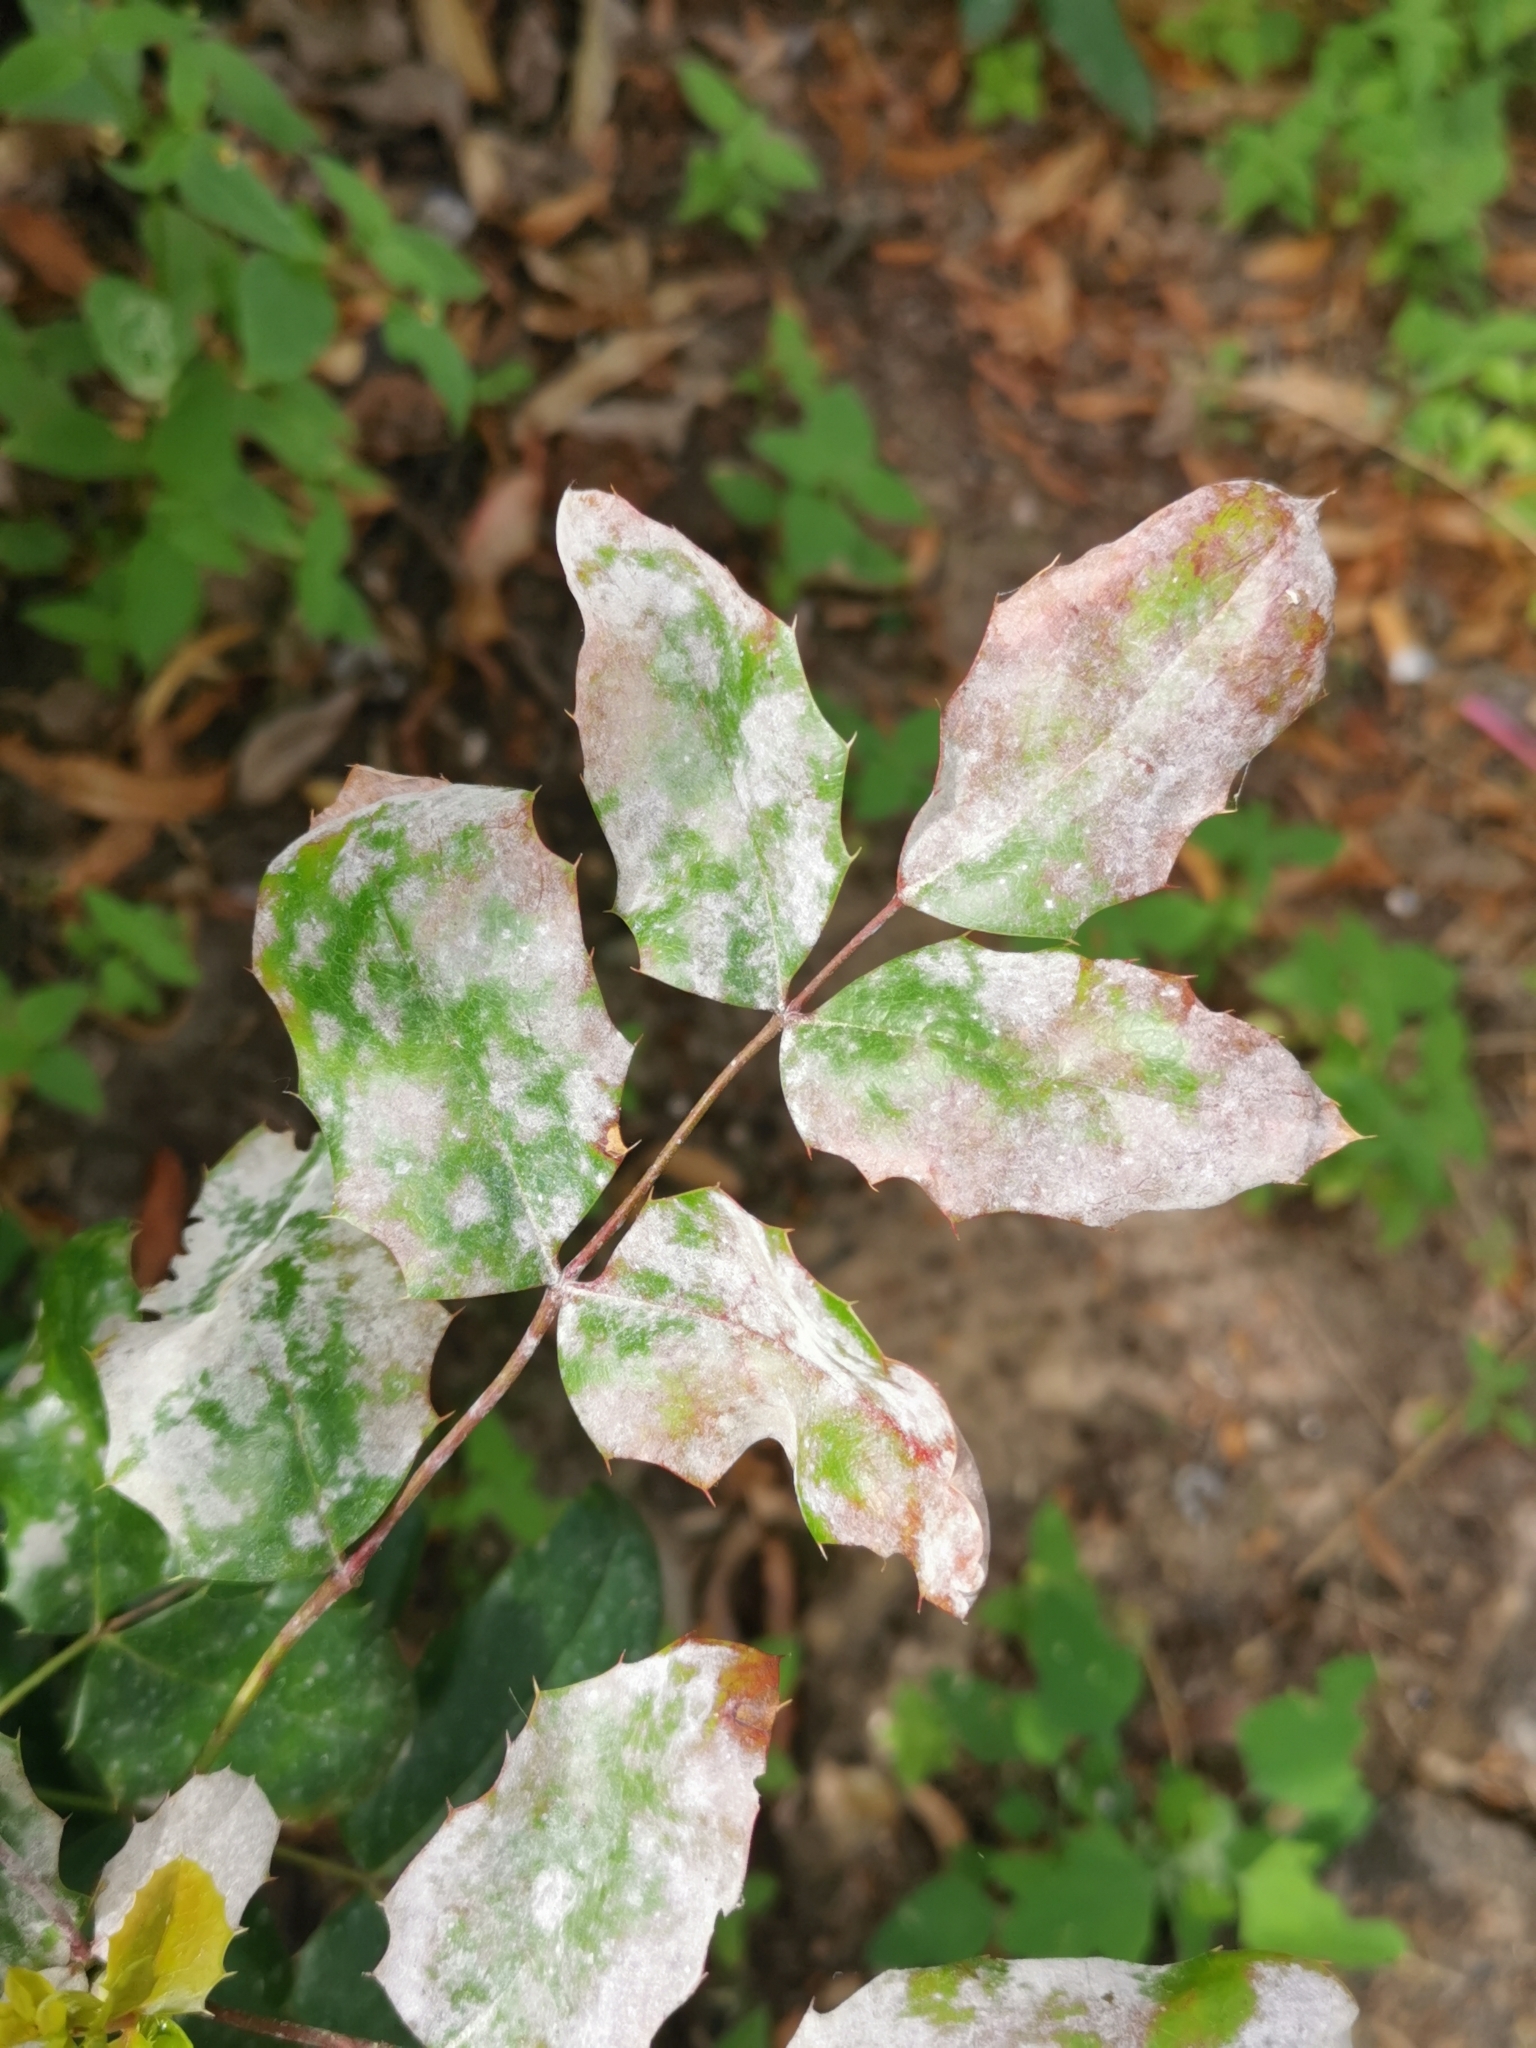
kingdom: Fungi
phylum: Ascomycota
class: Leotiomycetes
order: Helotiales
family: Erysiphaceae
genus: Erysiphe
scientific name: Erysiphe berberidis
